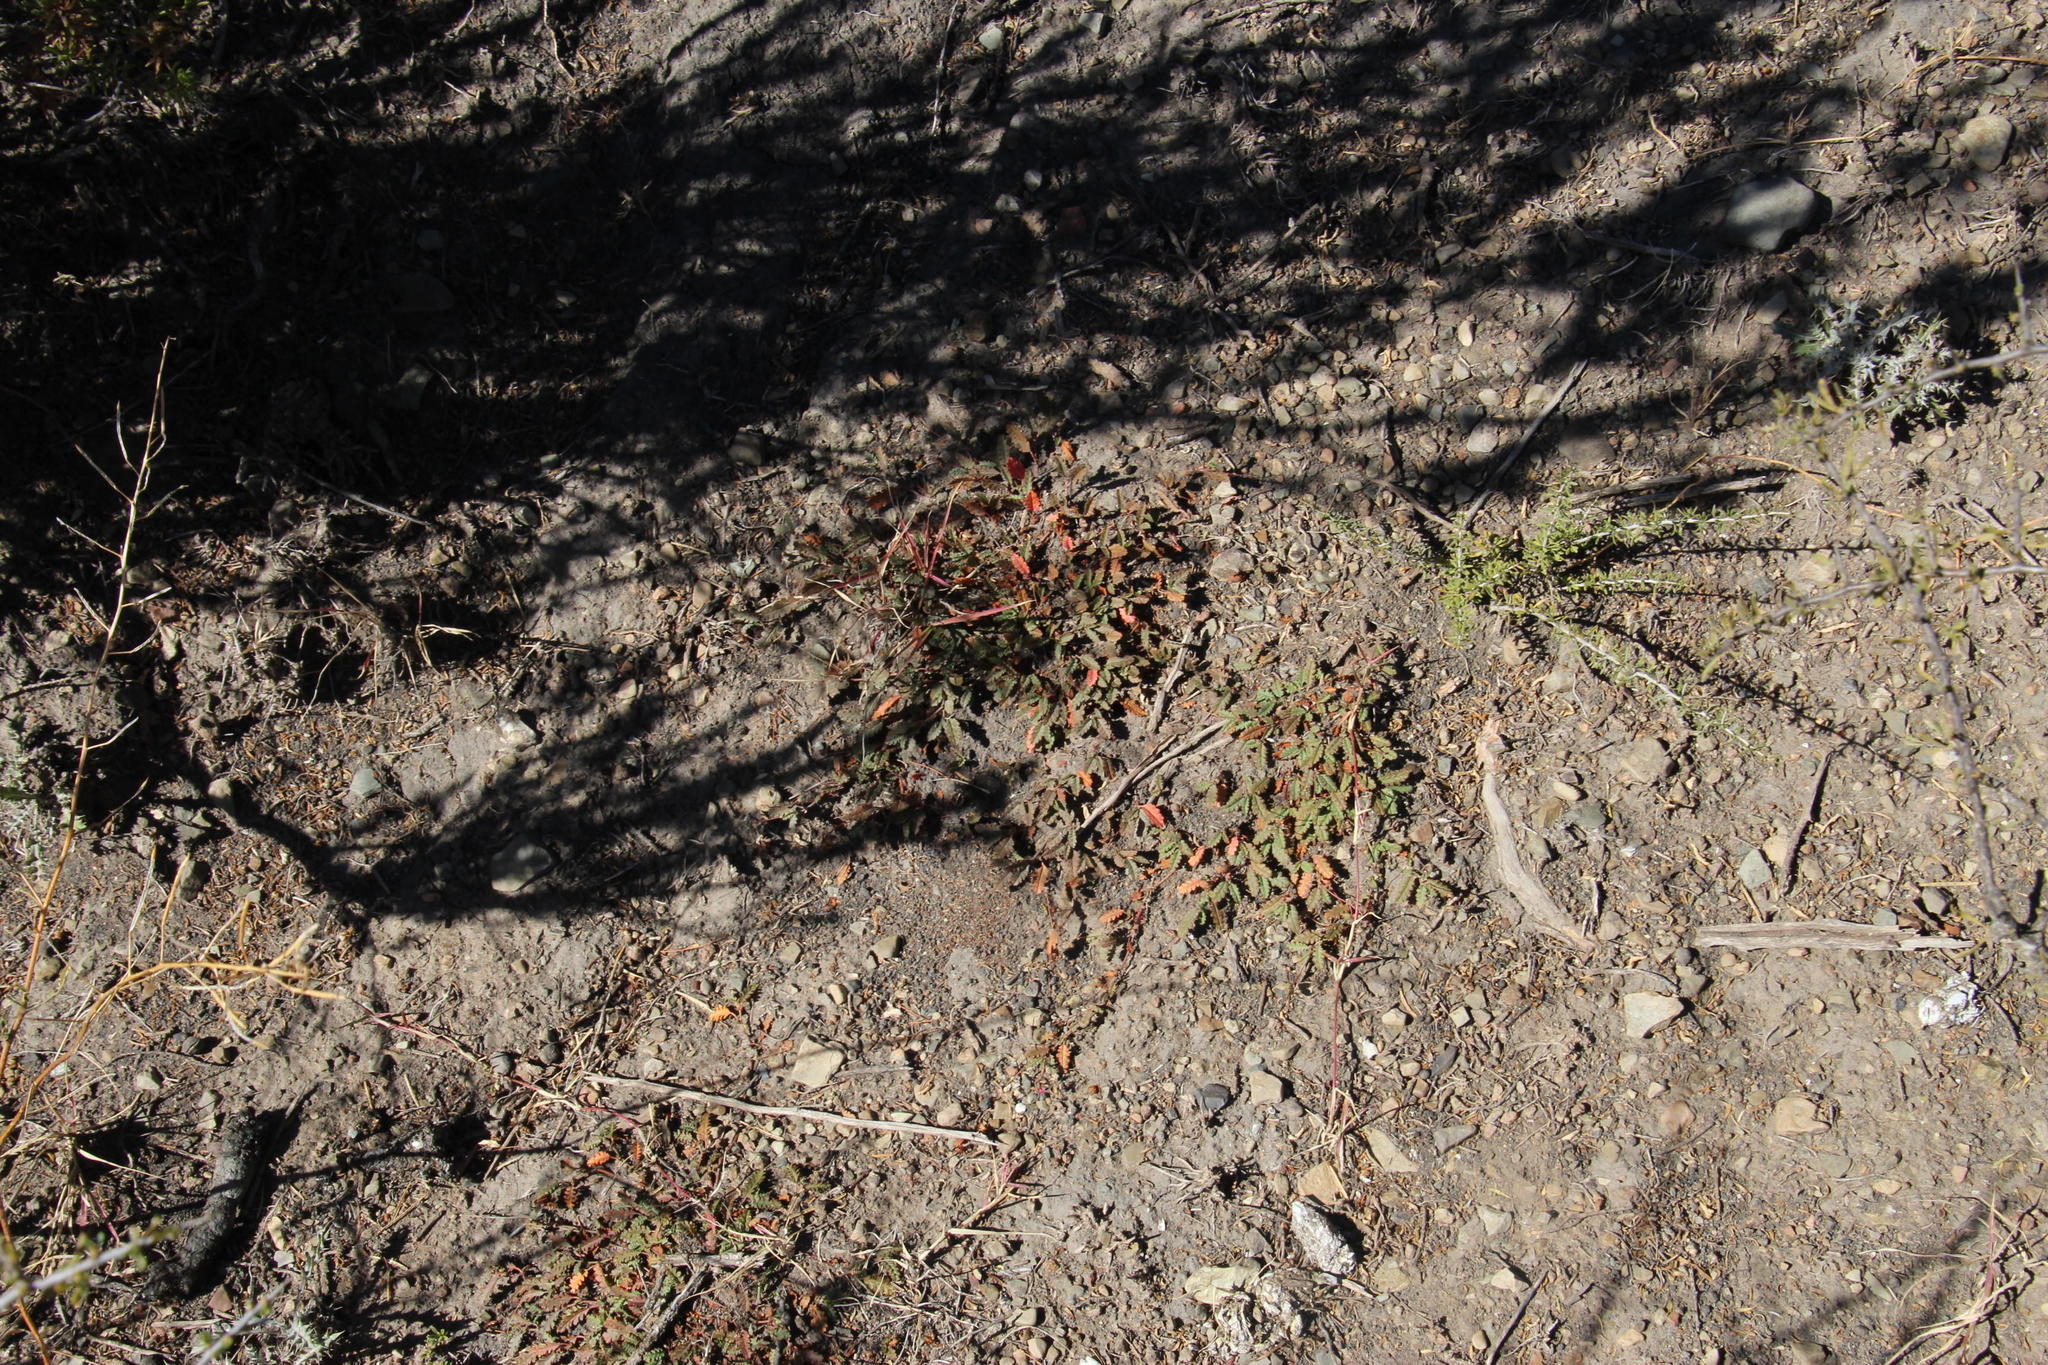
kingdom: Plantae
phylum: Tracheophyta
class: Magnoliopsida
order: Malvales
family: Malvaceae
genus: Hermannia
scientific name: Hermannia depressa
